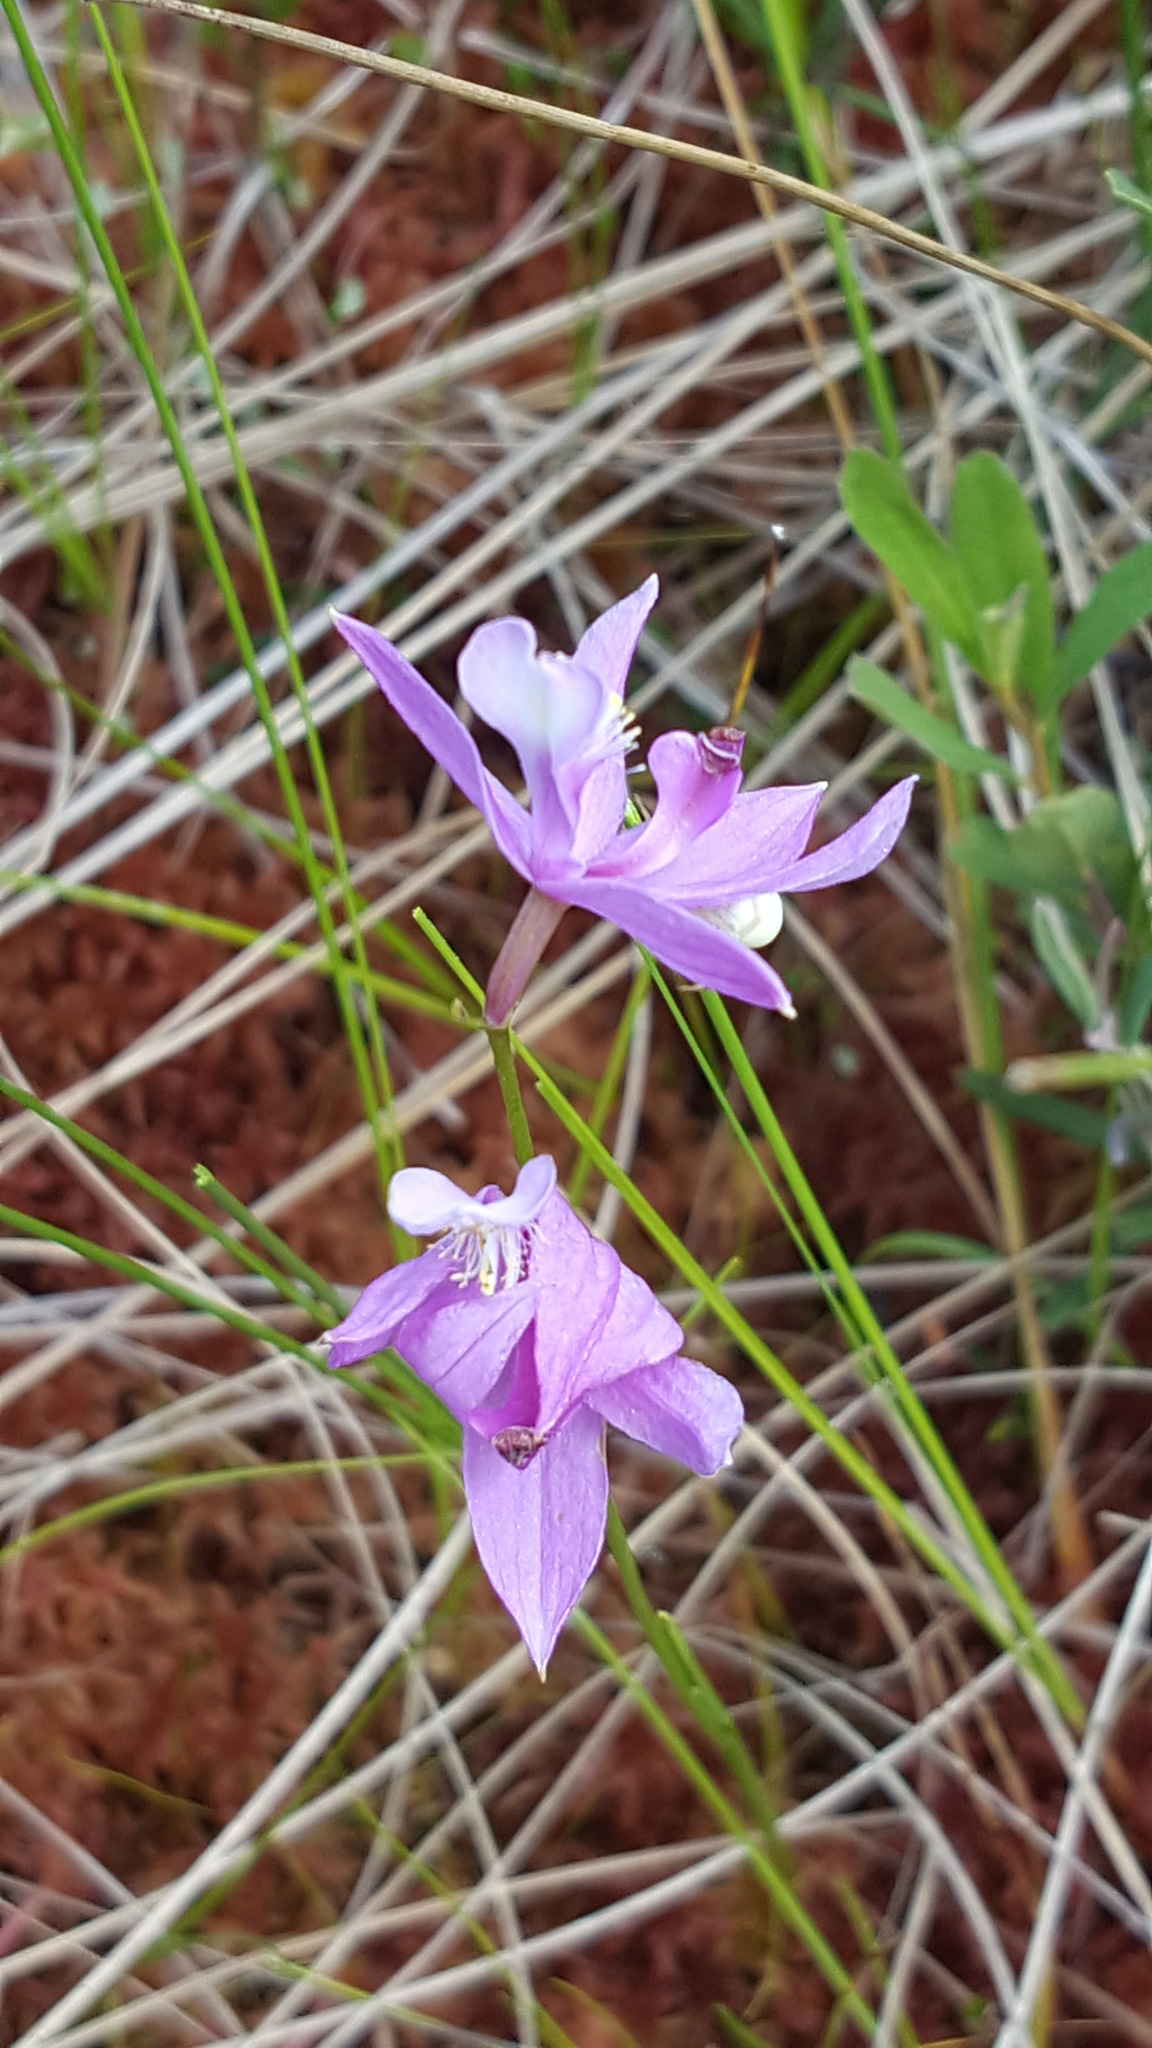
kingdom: Plantae
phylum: Tracheophyta
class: Liliopsida
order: Asparagales
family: Orchidaceae
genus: Calopogon
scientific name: Calopogon tuberosus
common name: Grass-pink
